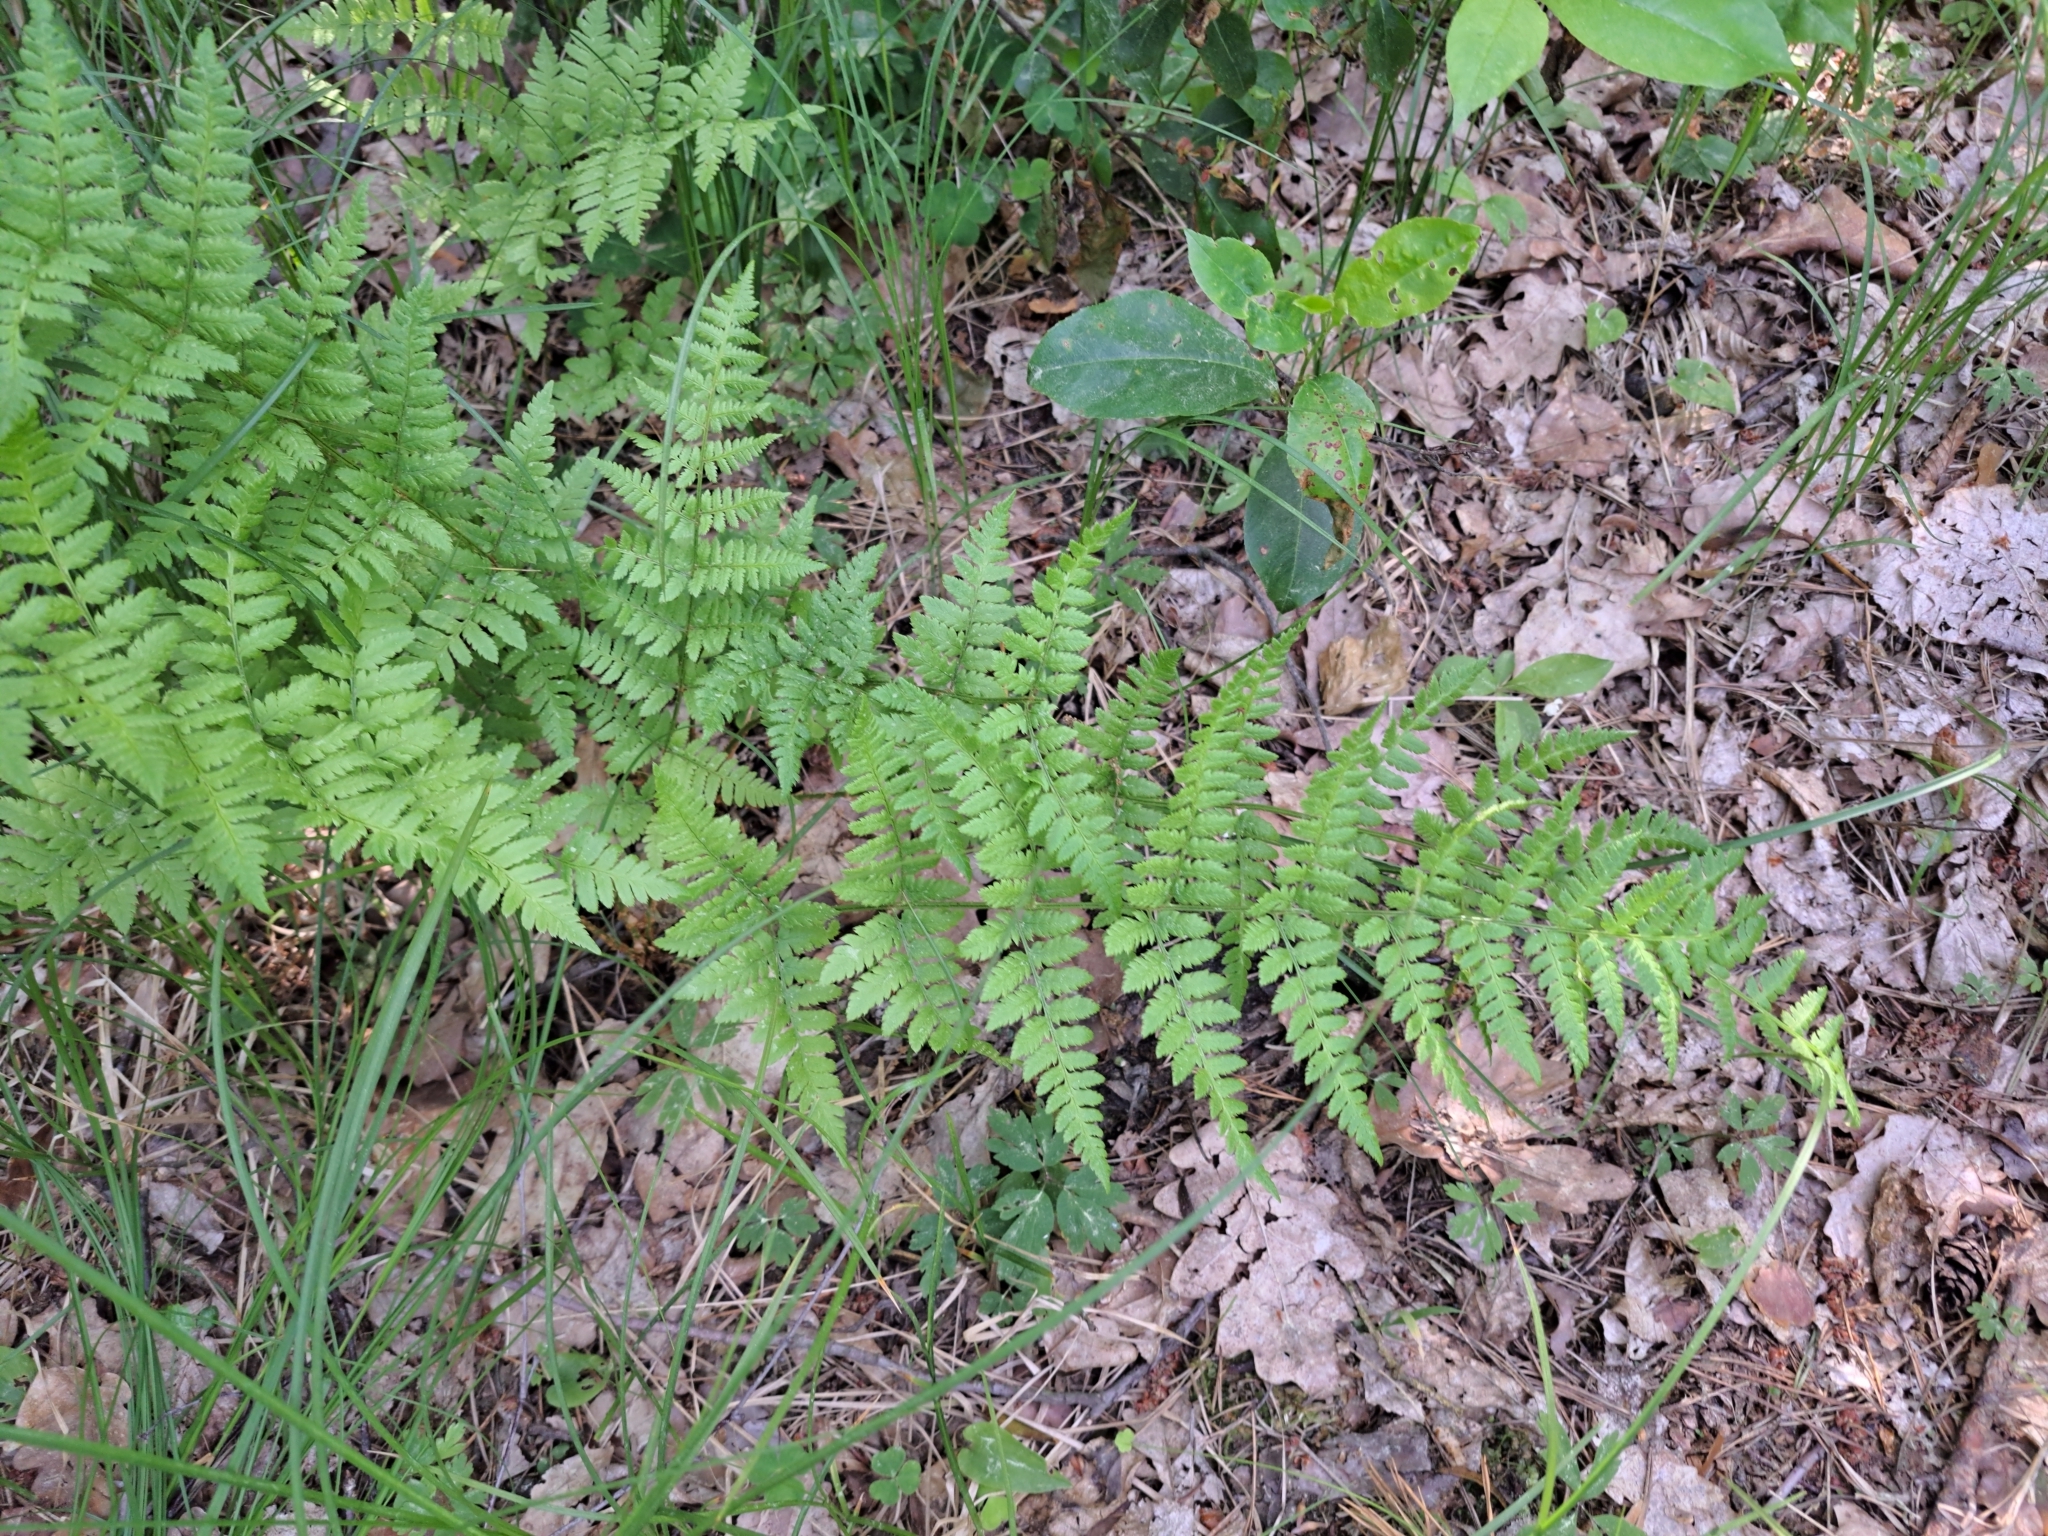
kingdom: Plantae
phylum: Tracheophyta
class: Polypodiopsida
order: Polypodiales
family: Dryopteridaceae
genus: Dryopteris
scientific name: Dryopteris carthusiana
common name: Narrow buckler-fern
